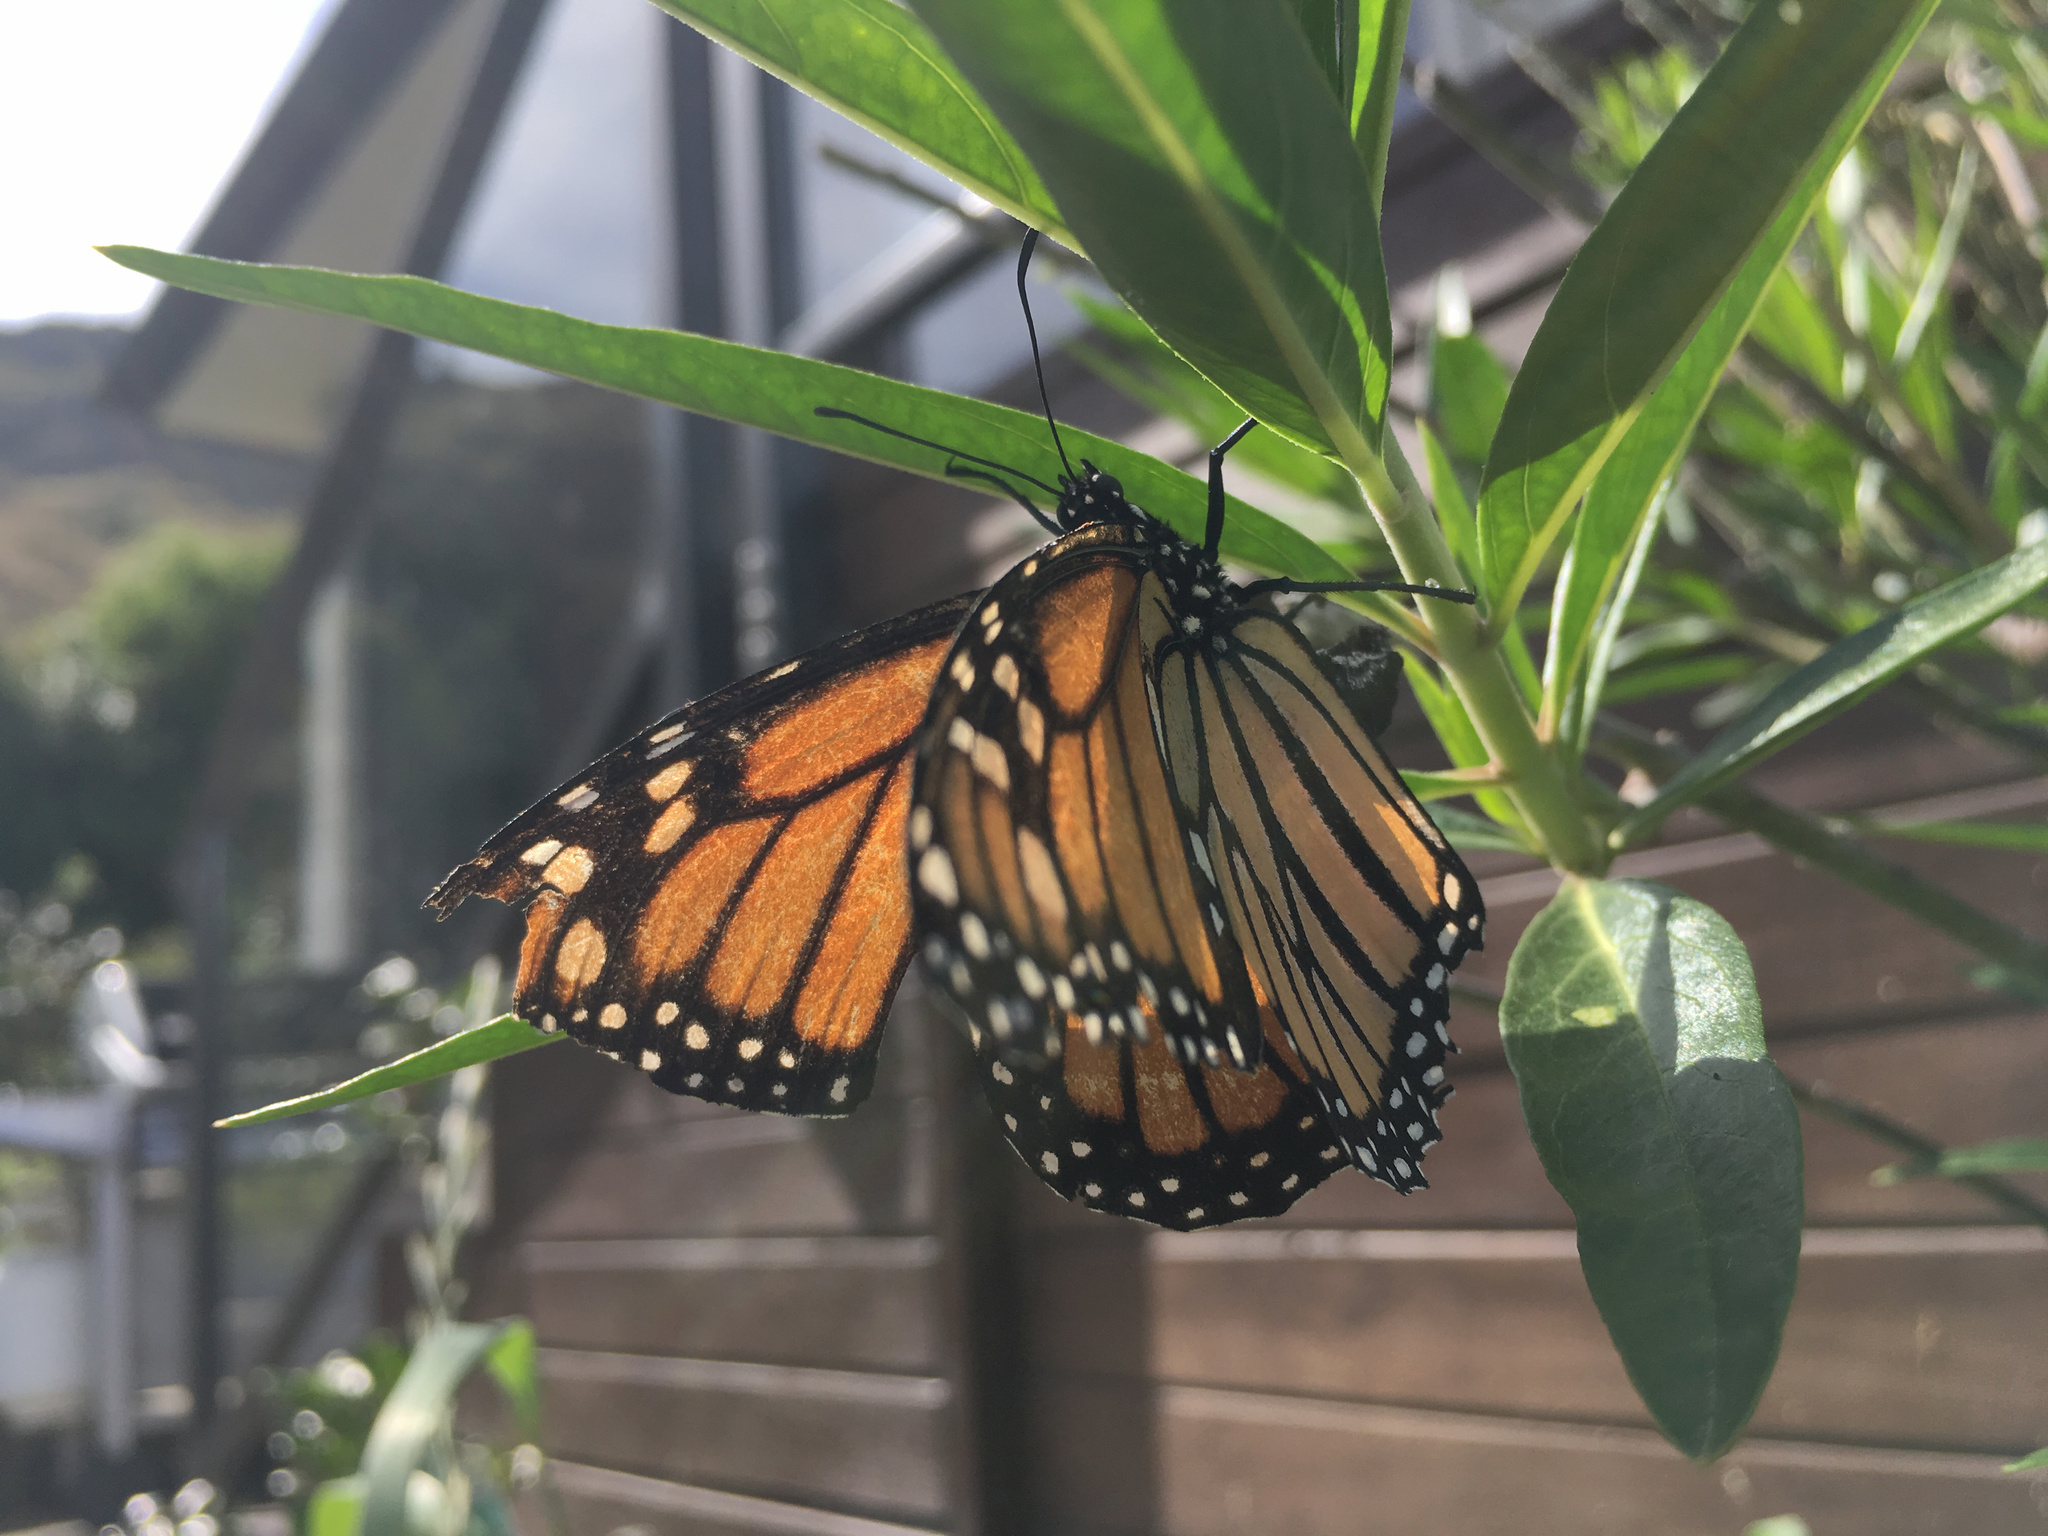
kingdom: Animalia
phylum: Arthropoda
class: Insecta
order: Lepidoptera
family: Nymphalidae
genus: Danaus
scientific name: Danaus plexippus
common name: Monarch
